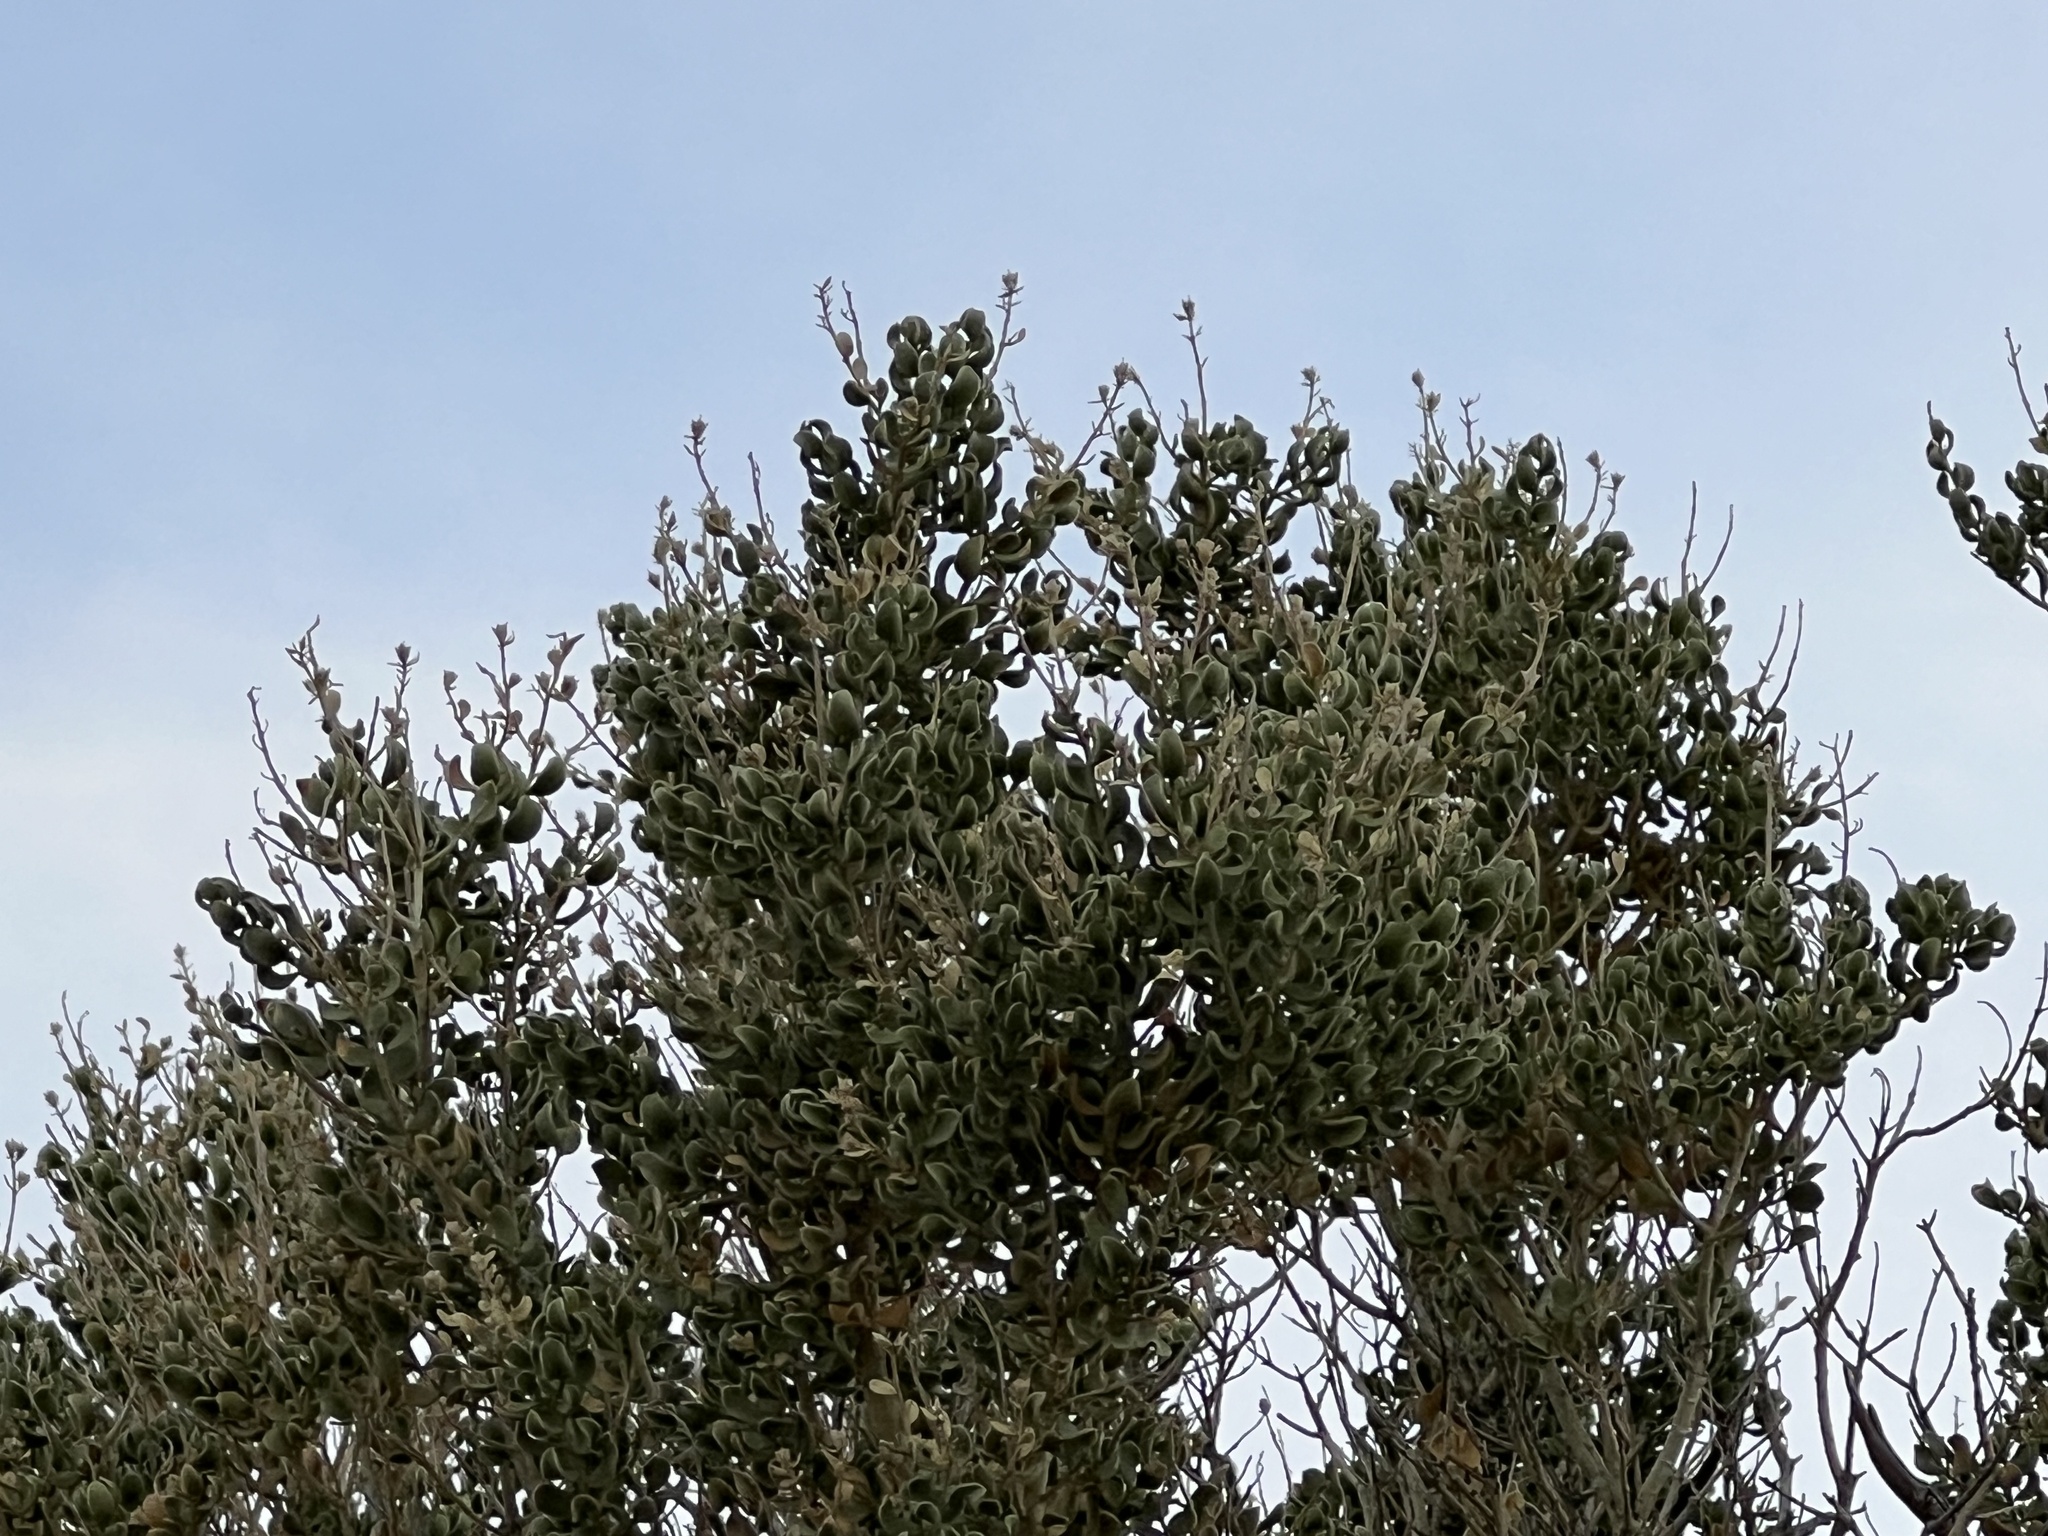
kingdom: Plantae
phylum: Tracheophyta
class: Magnoliopsida
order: Celastrales
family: Celastraceae
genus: Mortonia
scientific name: Mortonia utahensis
